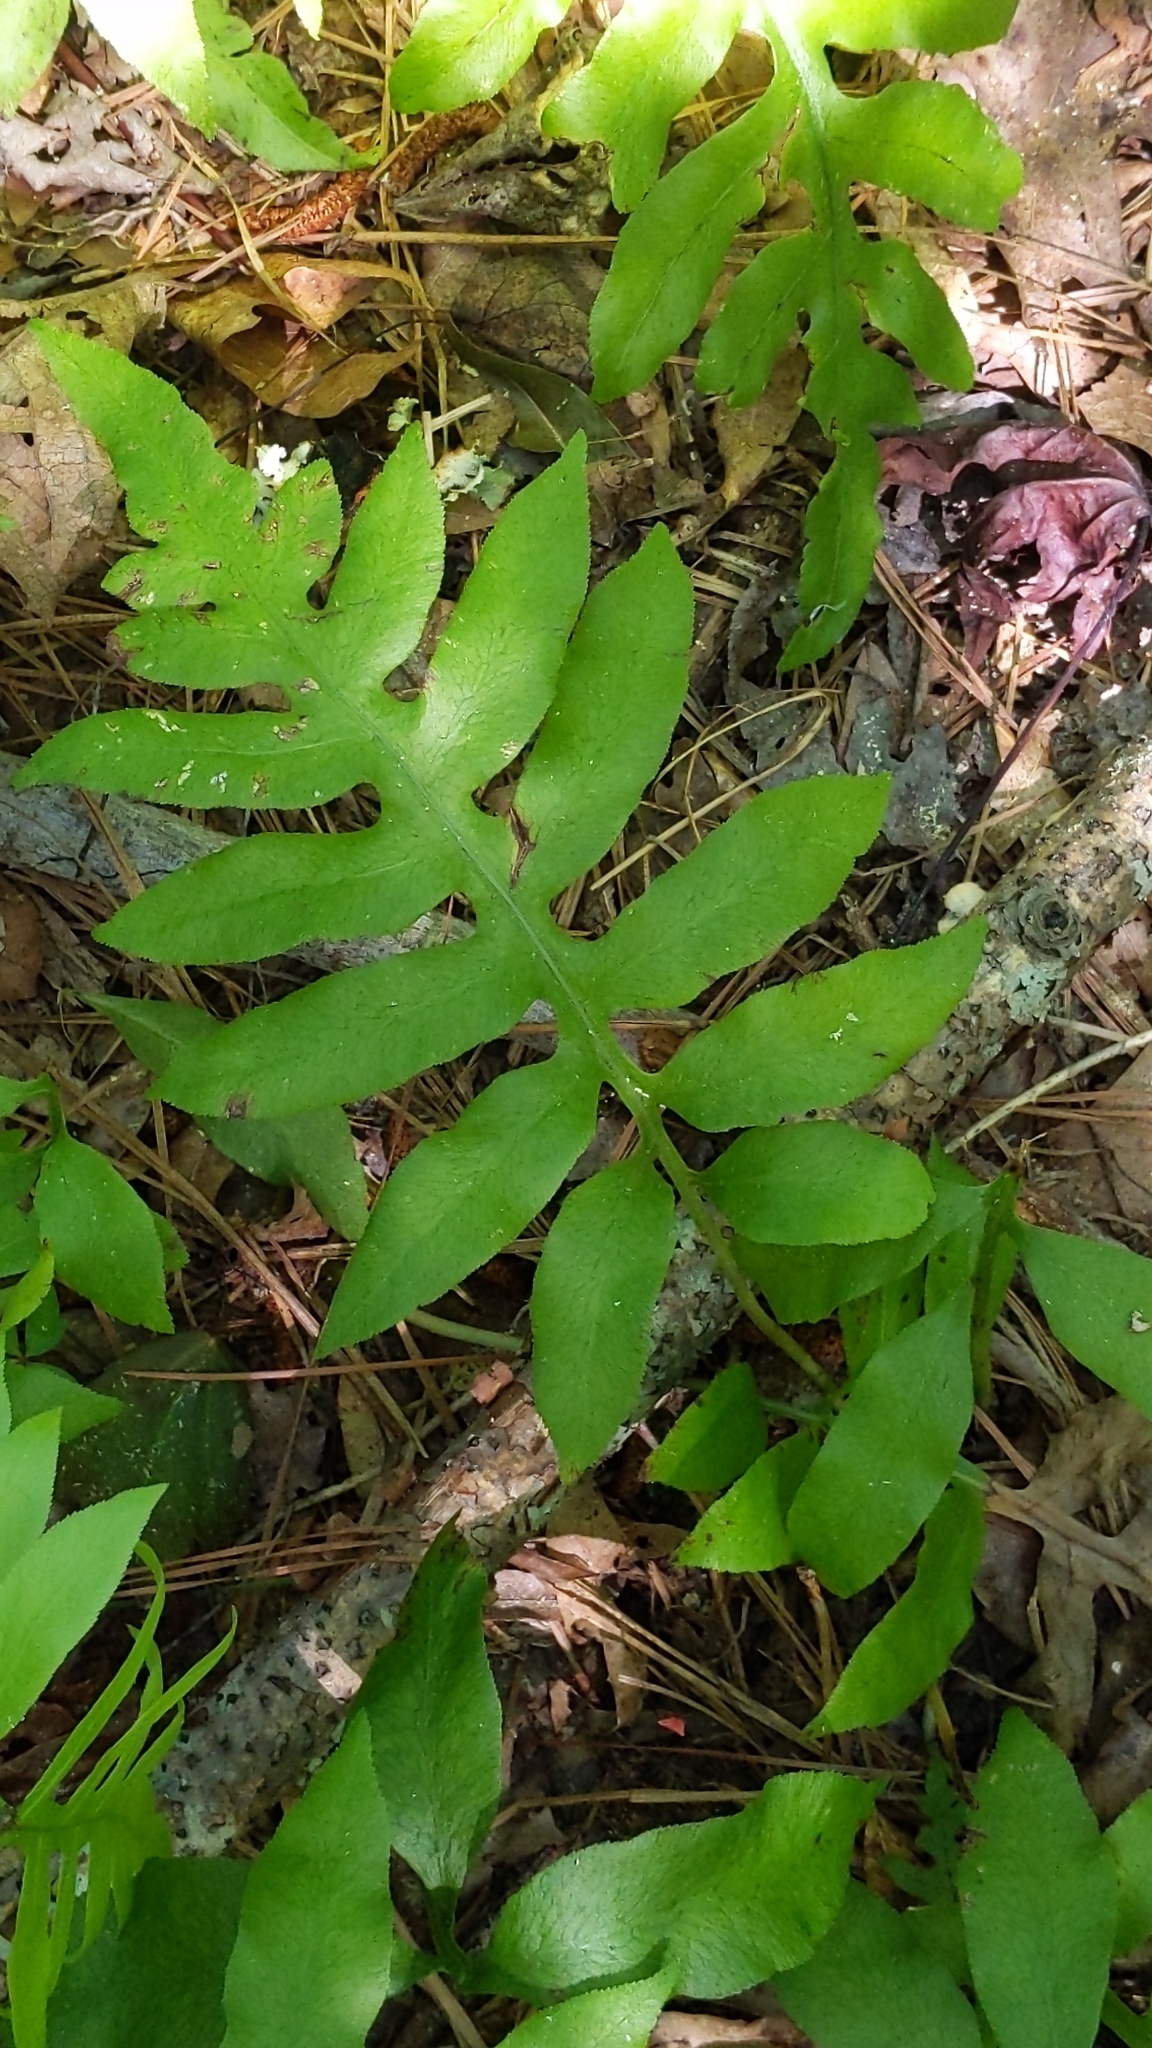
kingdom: Plantae
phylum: Tracheophyta
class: Polypodiopsida
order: Polypodiales
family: Blechnaceae
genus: Lorinseria
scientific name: Lorinseria areolata
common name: Dwarf chain fern
